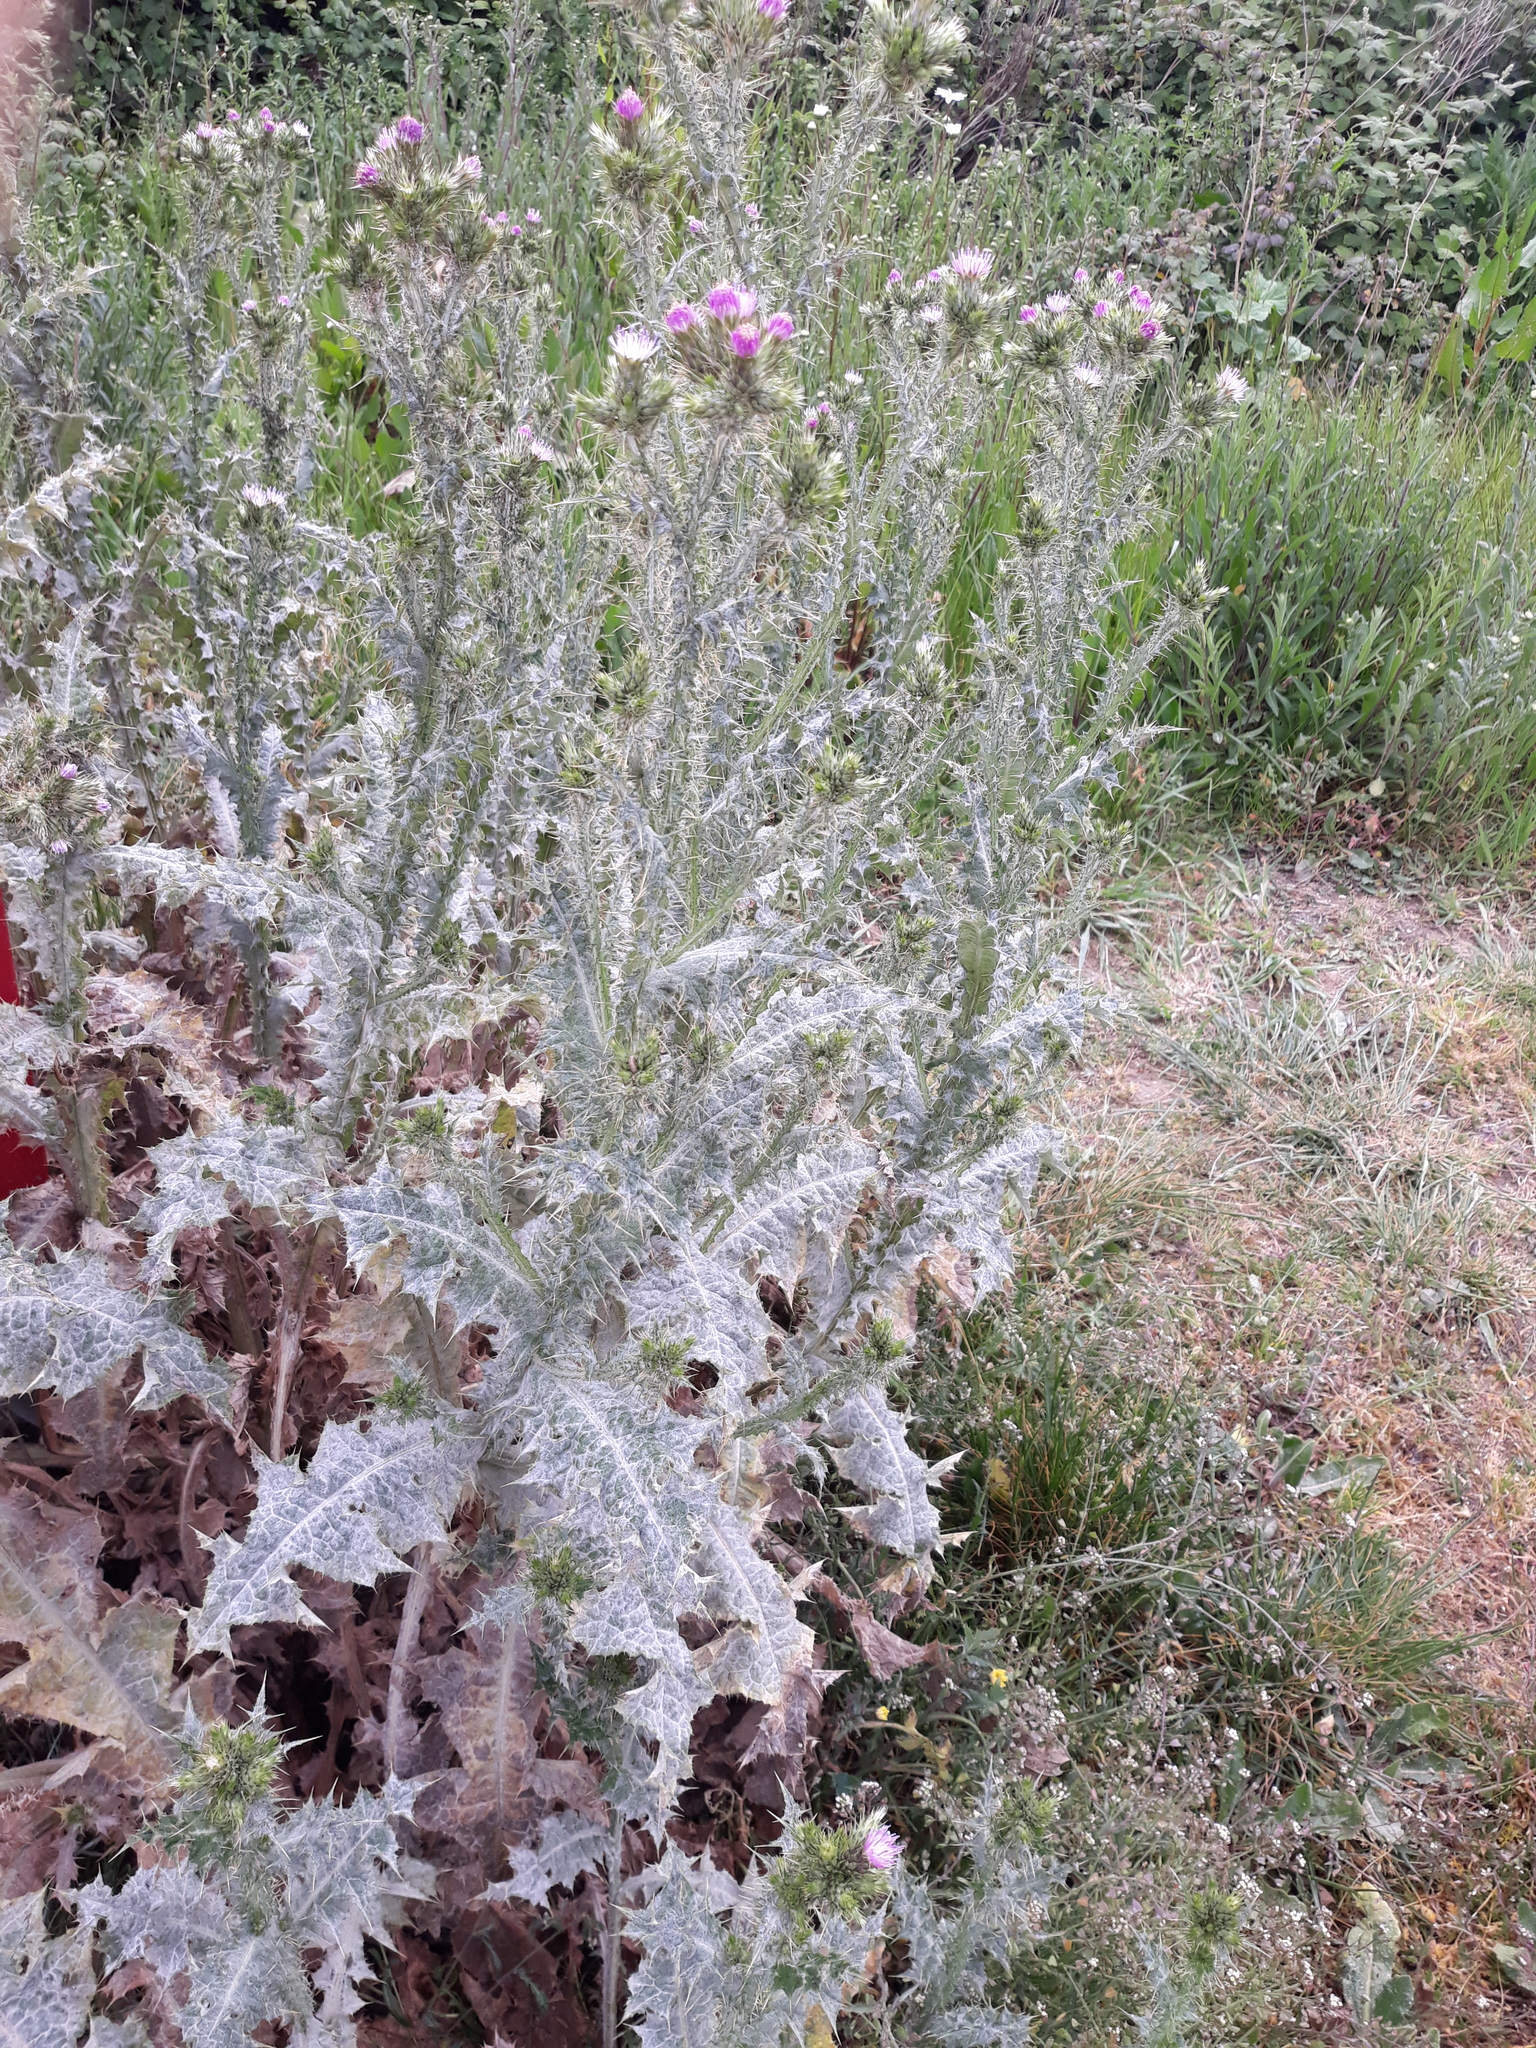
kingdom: Plantae
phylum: Tracheophyta
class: Magnoliopsida
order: Asterales
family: Asteraceae
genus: Carduus
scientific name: Carduus tenuiflorus
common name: Slender thistle
